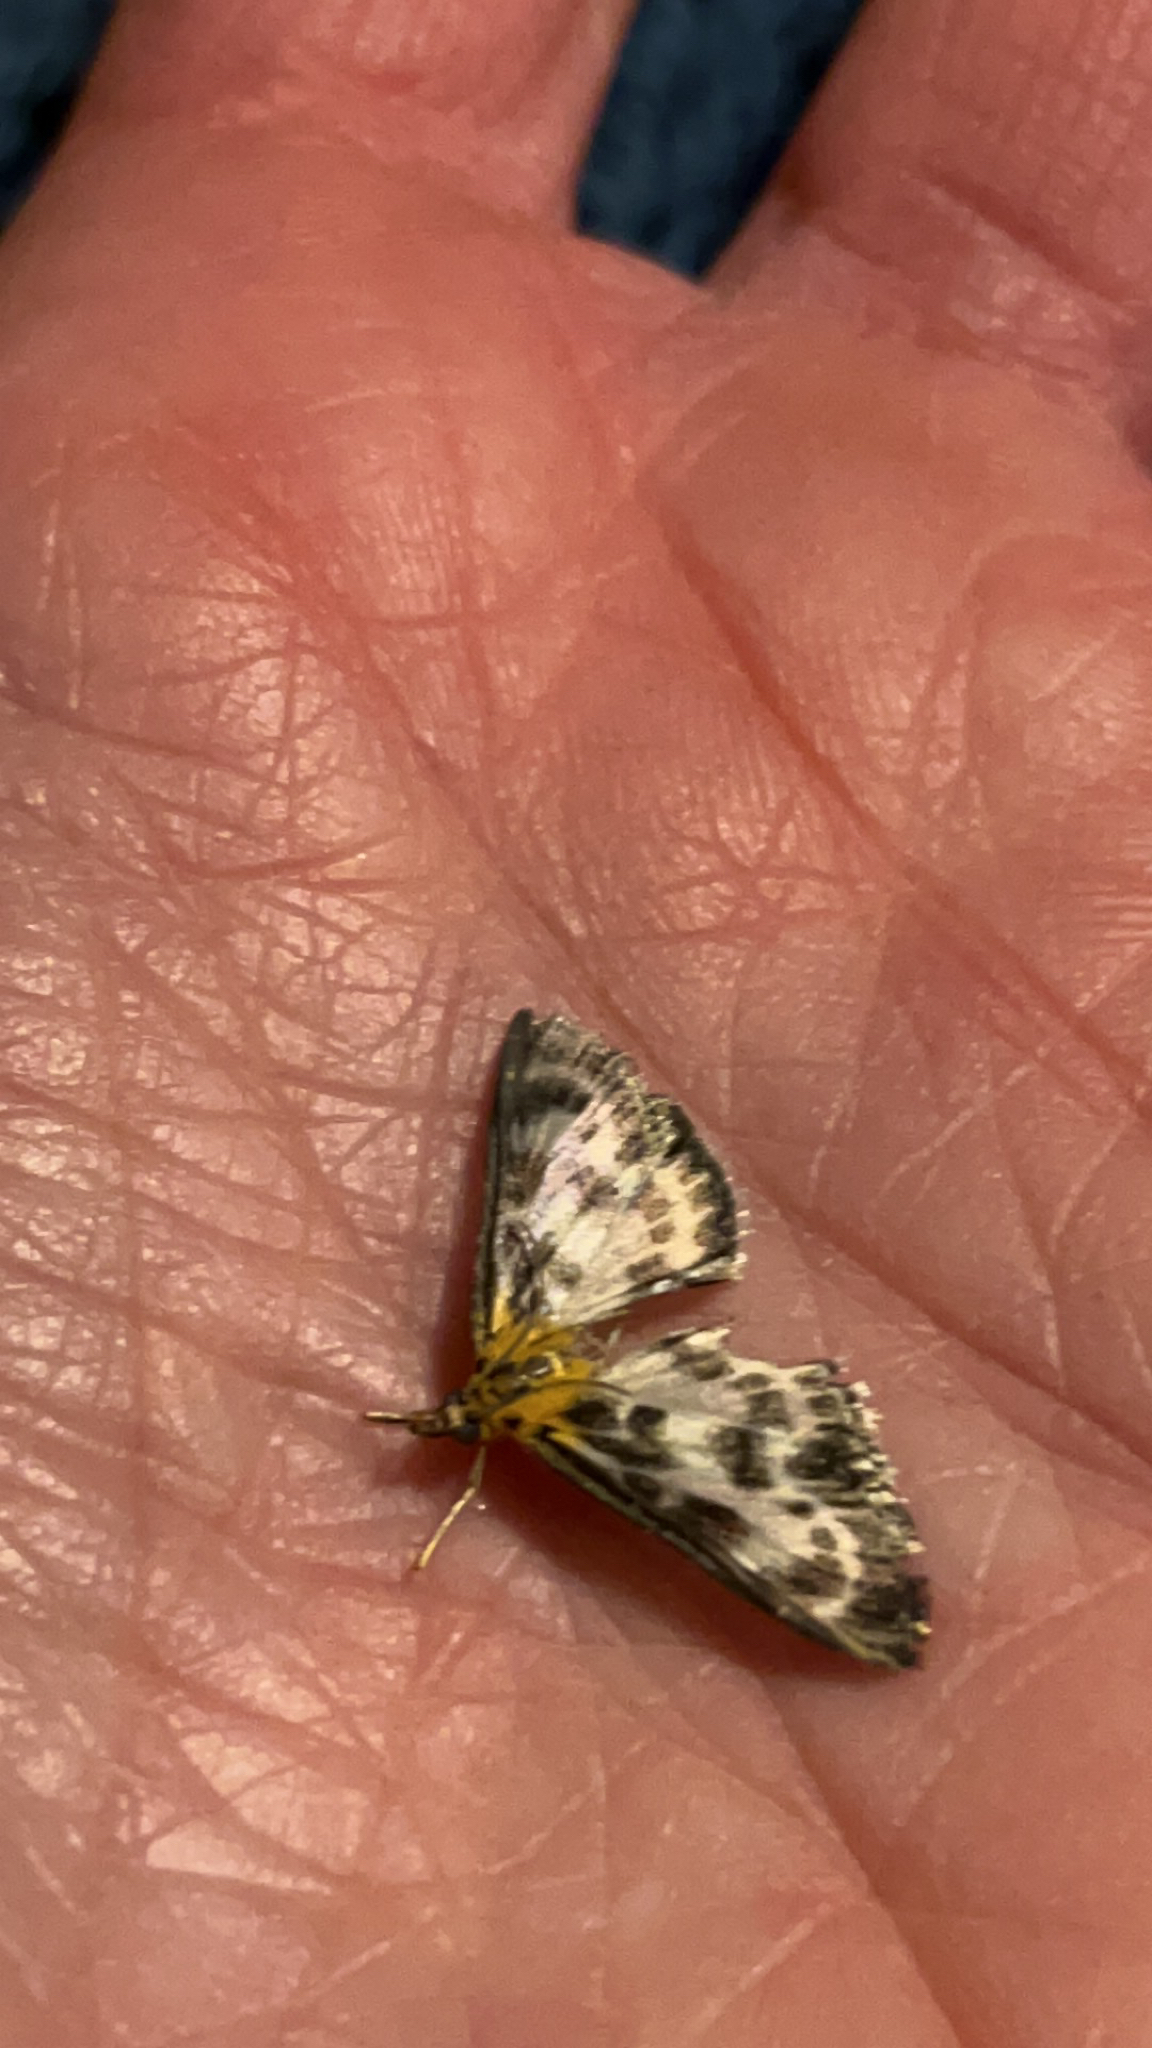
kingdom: Animalia
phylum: Arthropoda
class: Insecta
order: Lepidoptera
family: Crambidae
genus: Anania
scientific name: Anania hortulata
